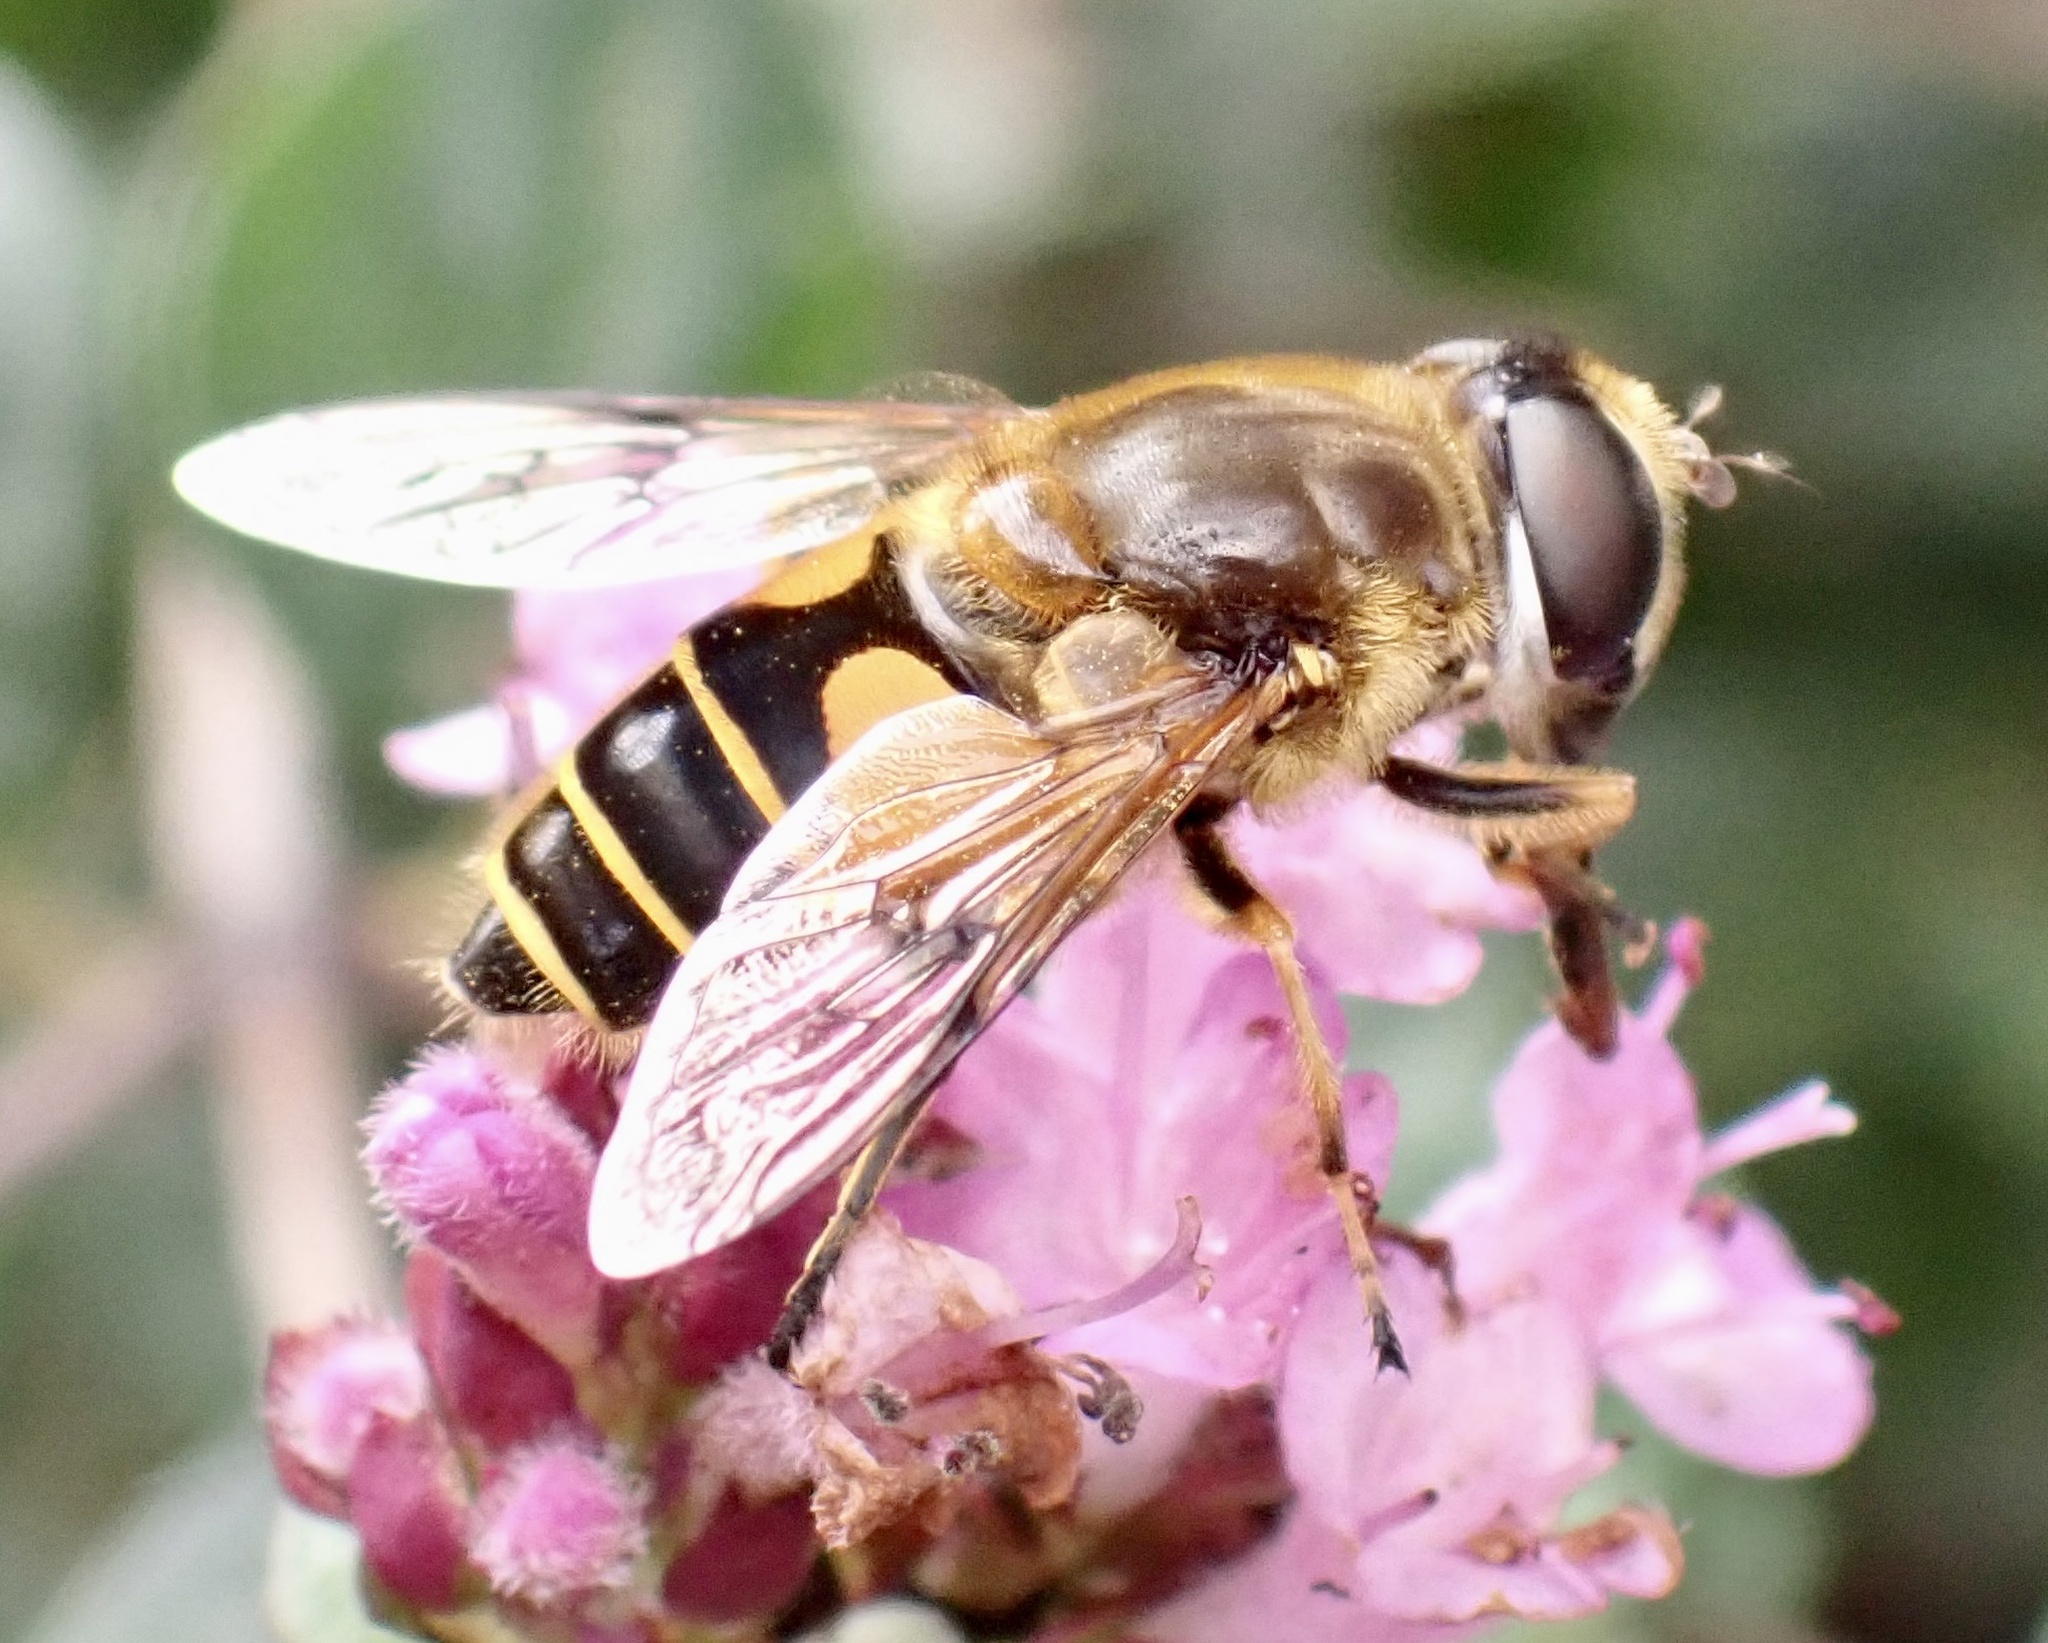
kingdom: Animalia
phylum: Arthropoda
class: Insecta
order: Diptera
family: Syrphidae
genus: Cheilosia
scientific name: Cheilosia morio
